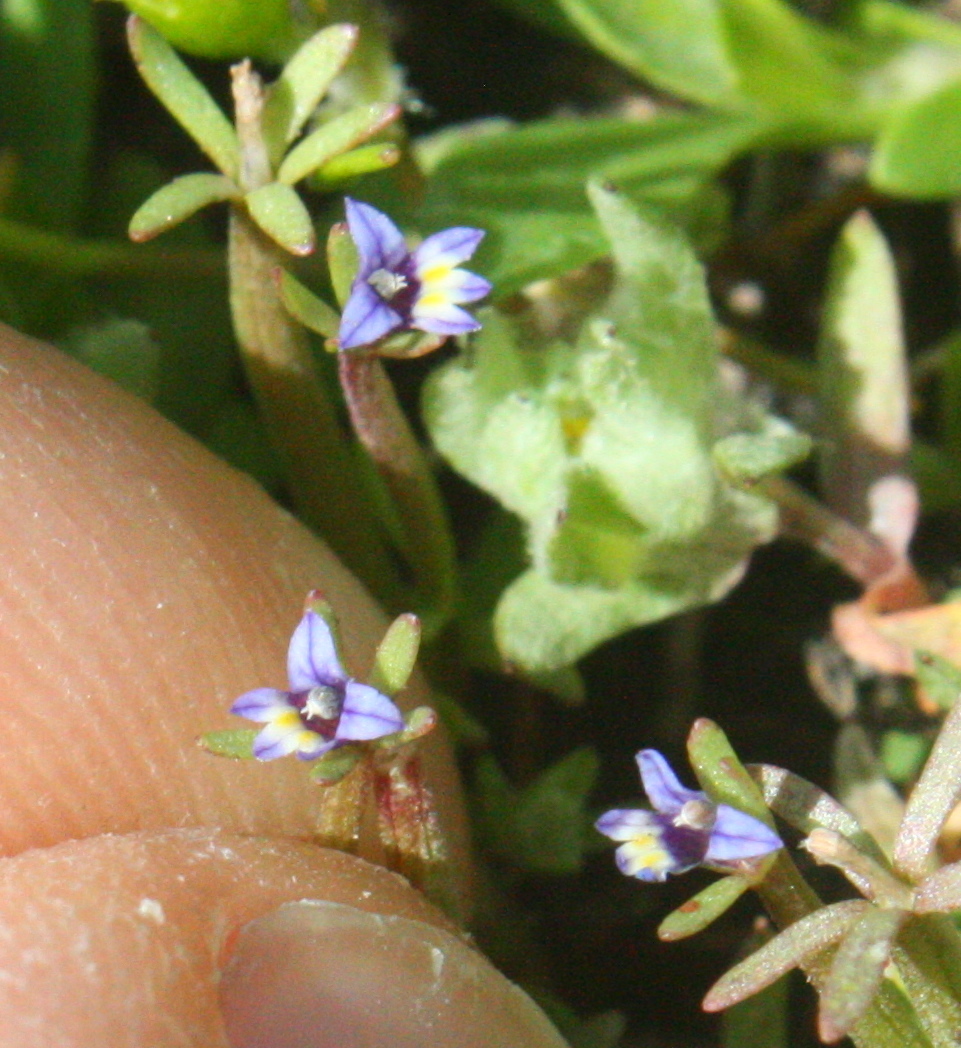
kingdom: Plantae
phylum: Tracheophyta
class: Magnoliopsida
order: Asterales
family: Campanulaceae
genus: Downingia
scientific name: Downingia pusilla
